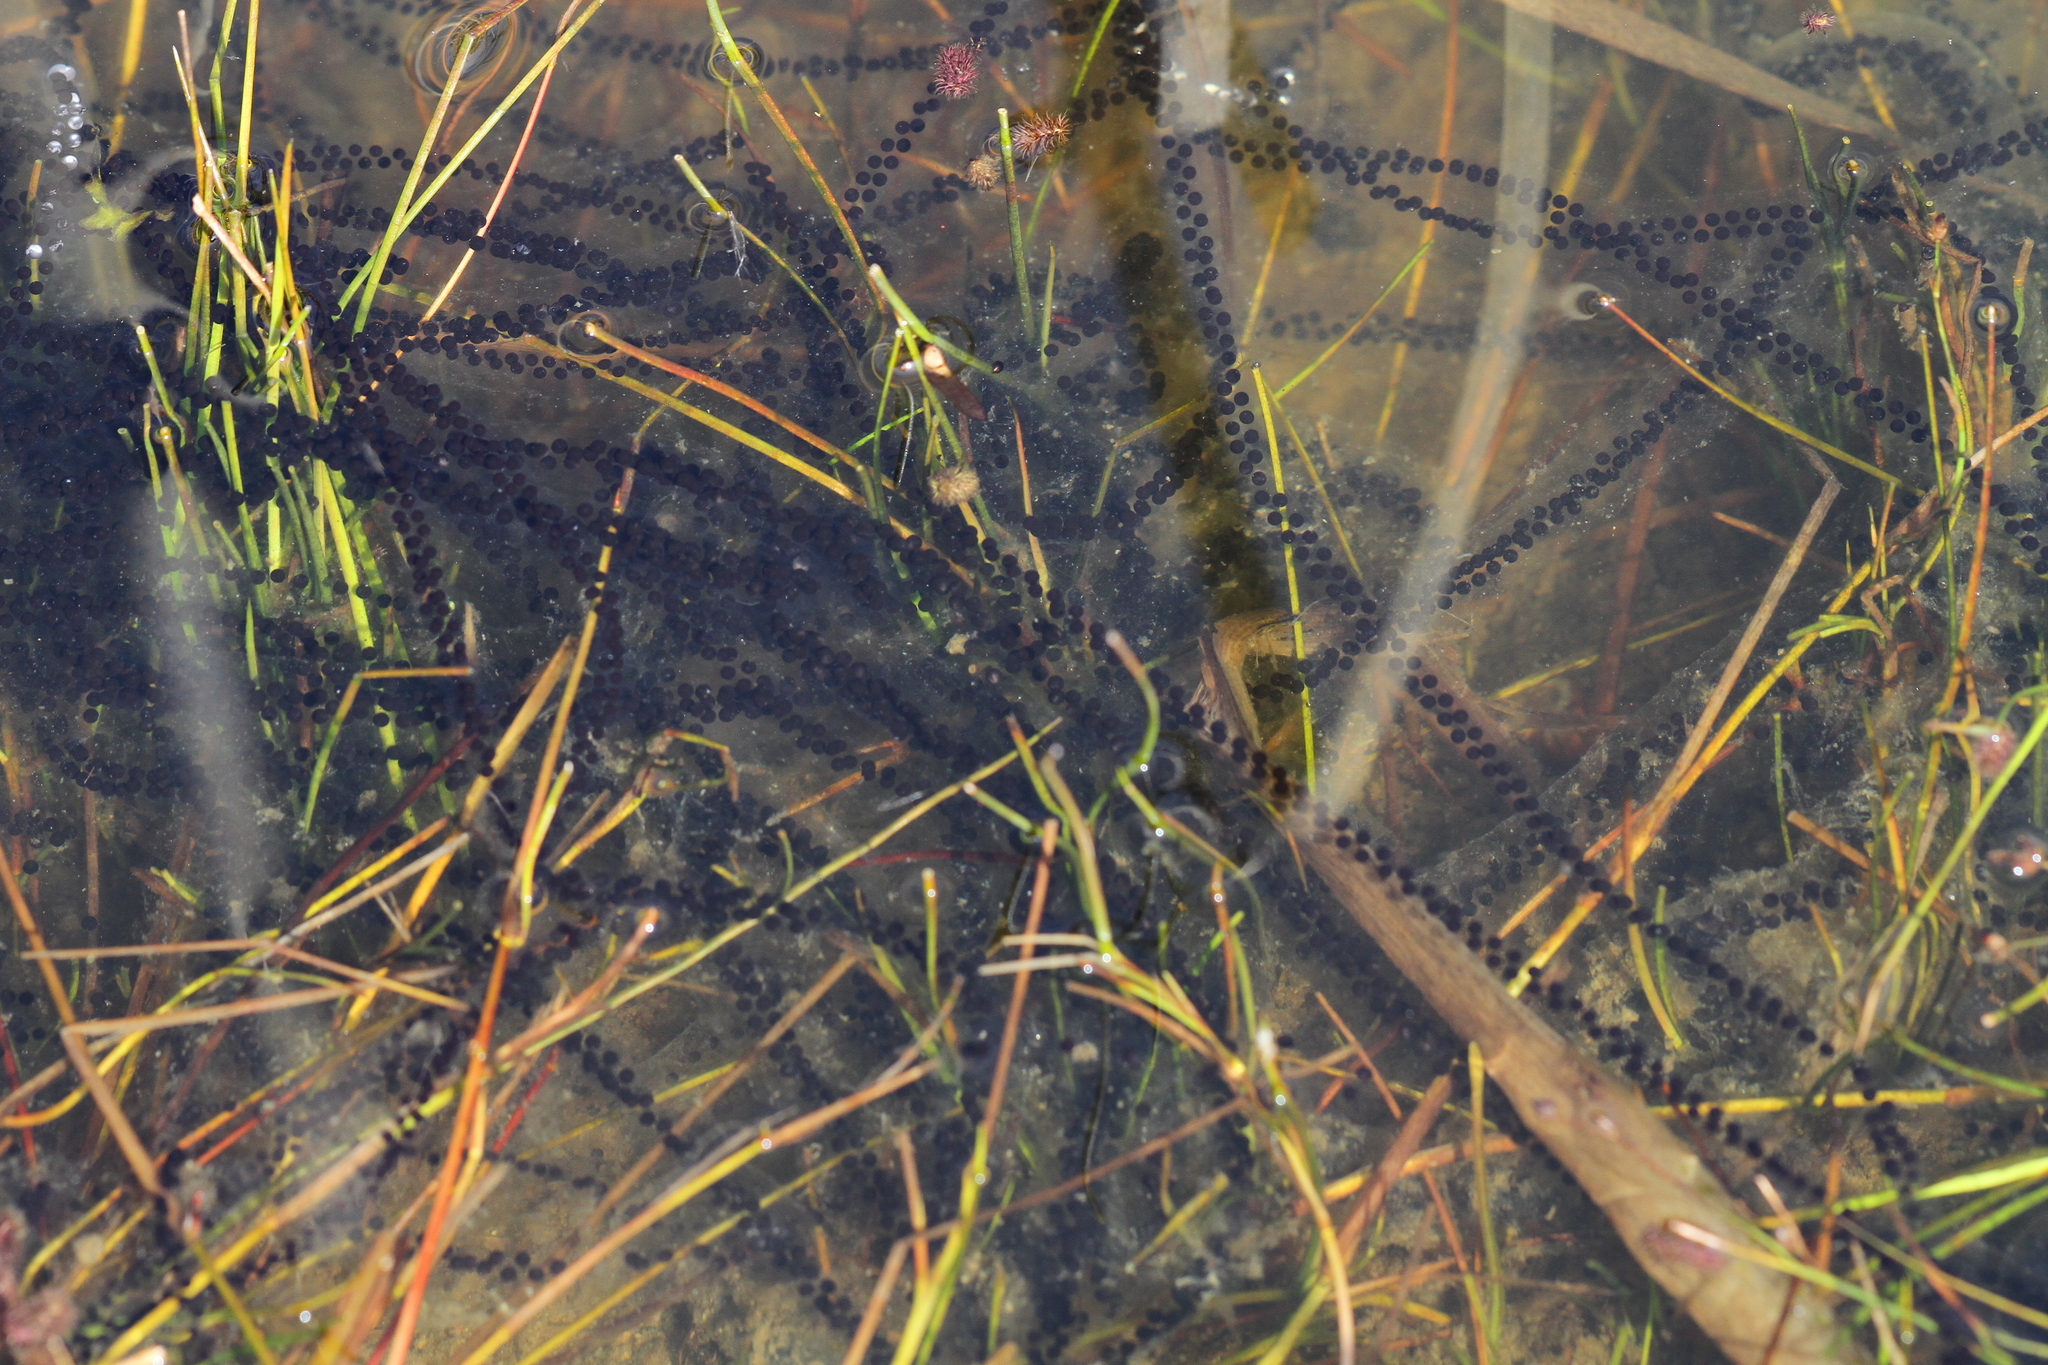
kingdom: Animalia
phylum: Chordata
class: Amphibia
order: Anura
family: Bufonidae
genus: Bufo
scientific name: Bufo bufo
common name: Common toad
